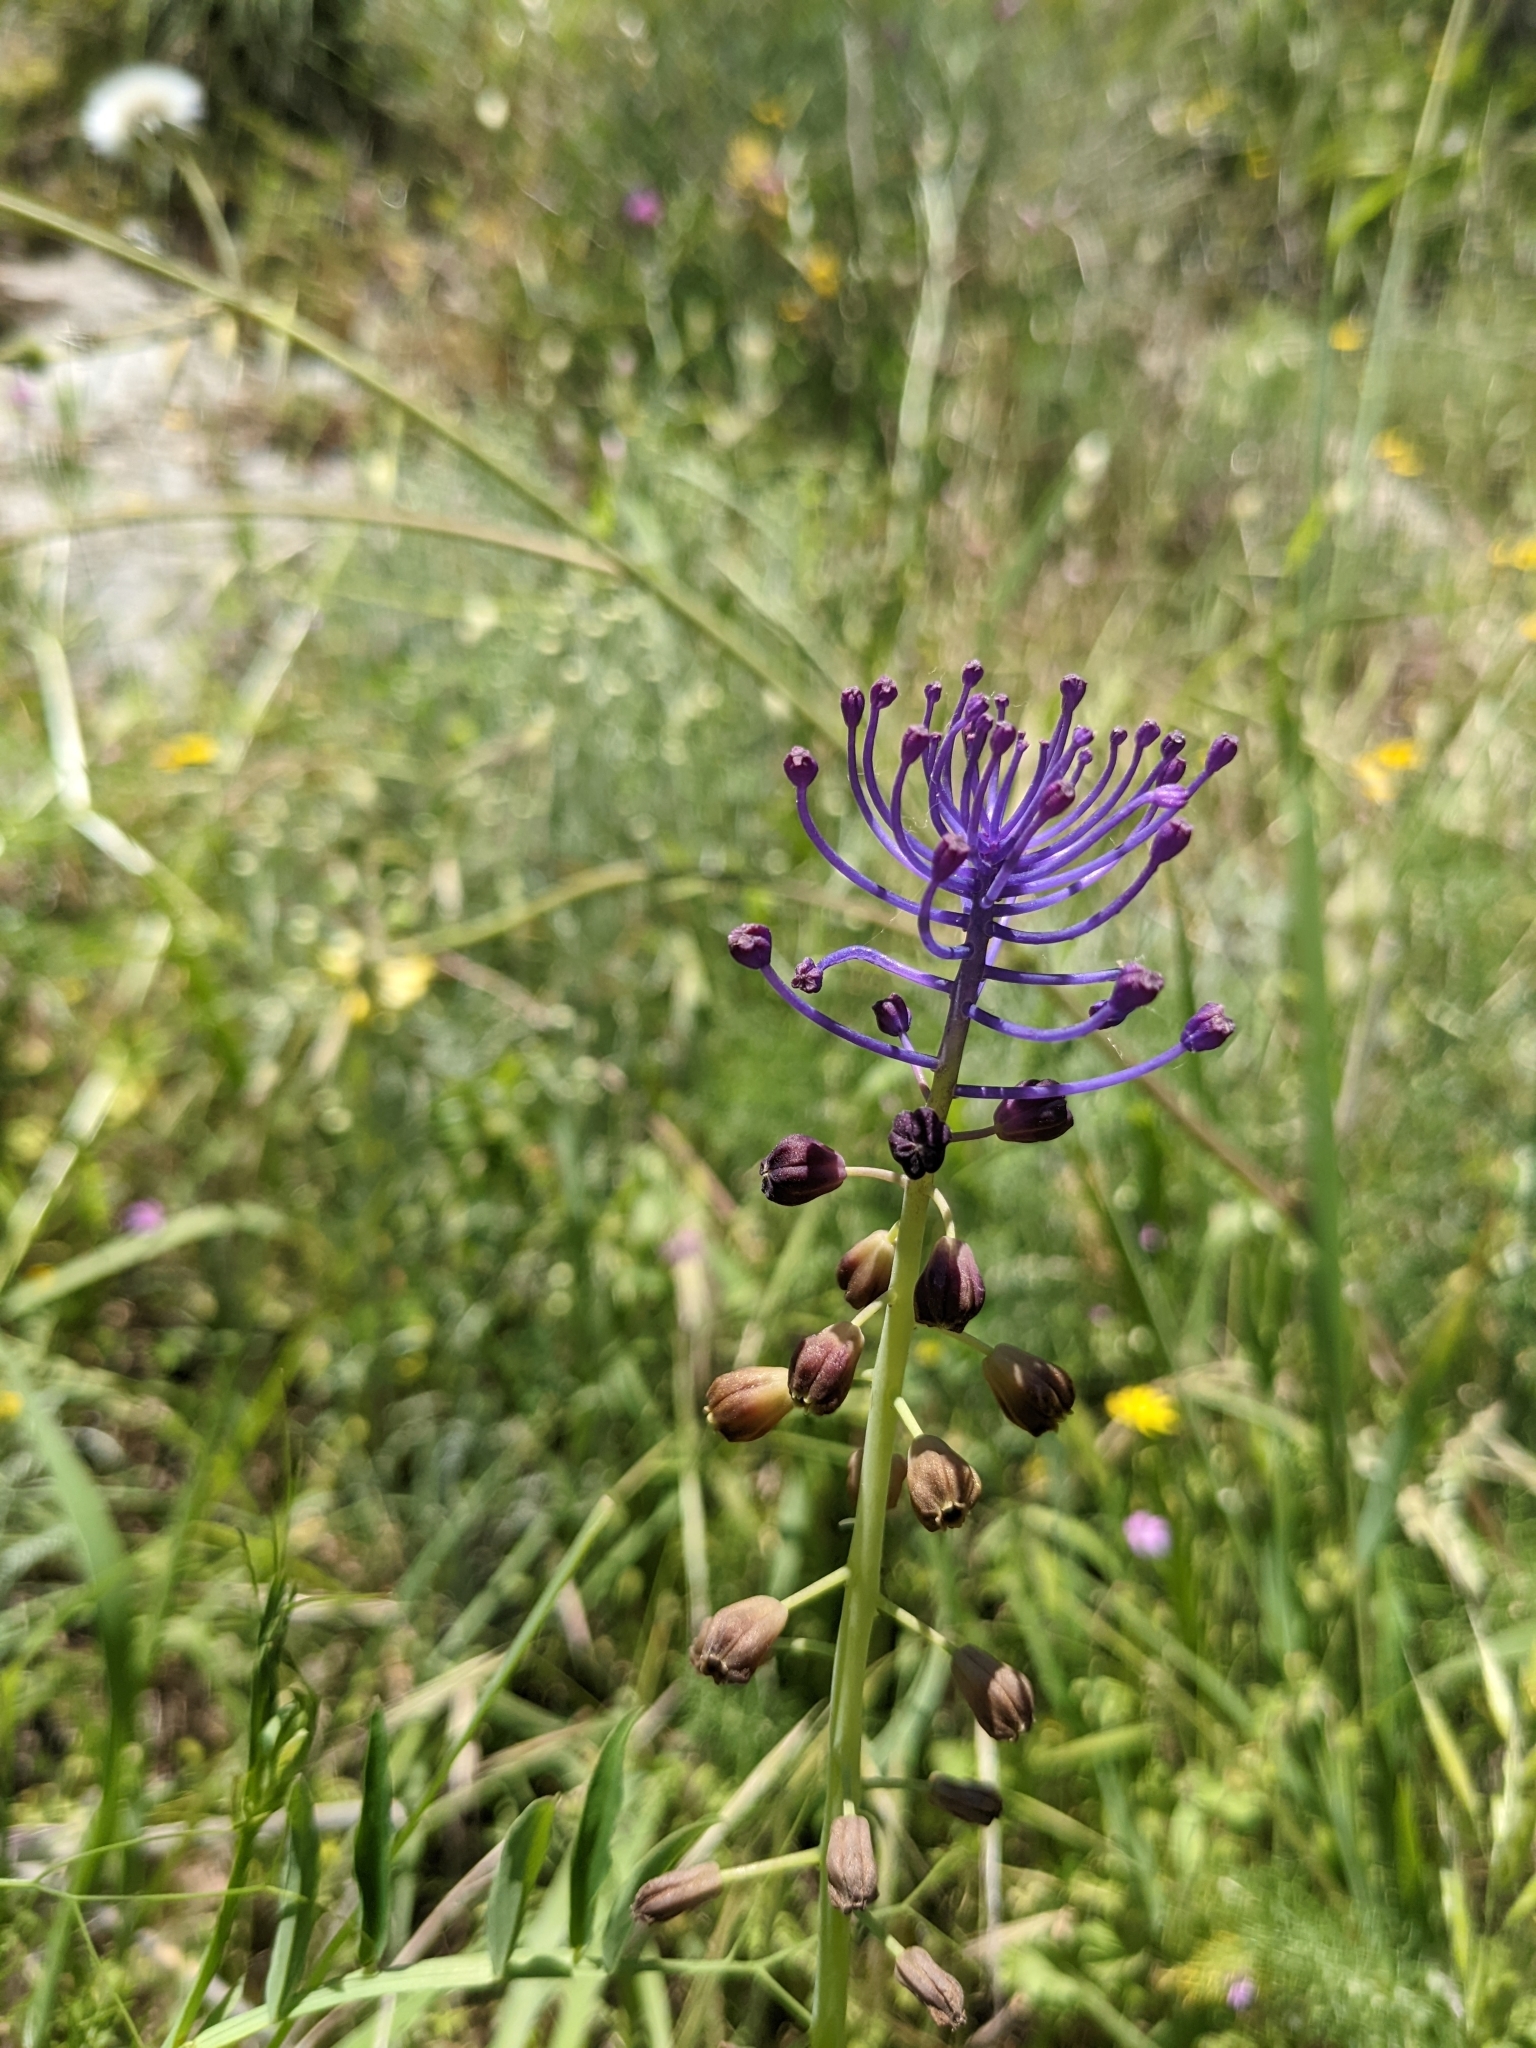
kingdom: Plantae
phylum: Tracheophyta
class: Liliopsida
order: Asparagales
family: Asparagaceae
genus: Muscari
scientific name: Muscari comosum
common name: Tassel hyacinth
